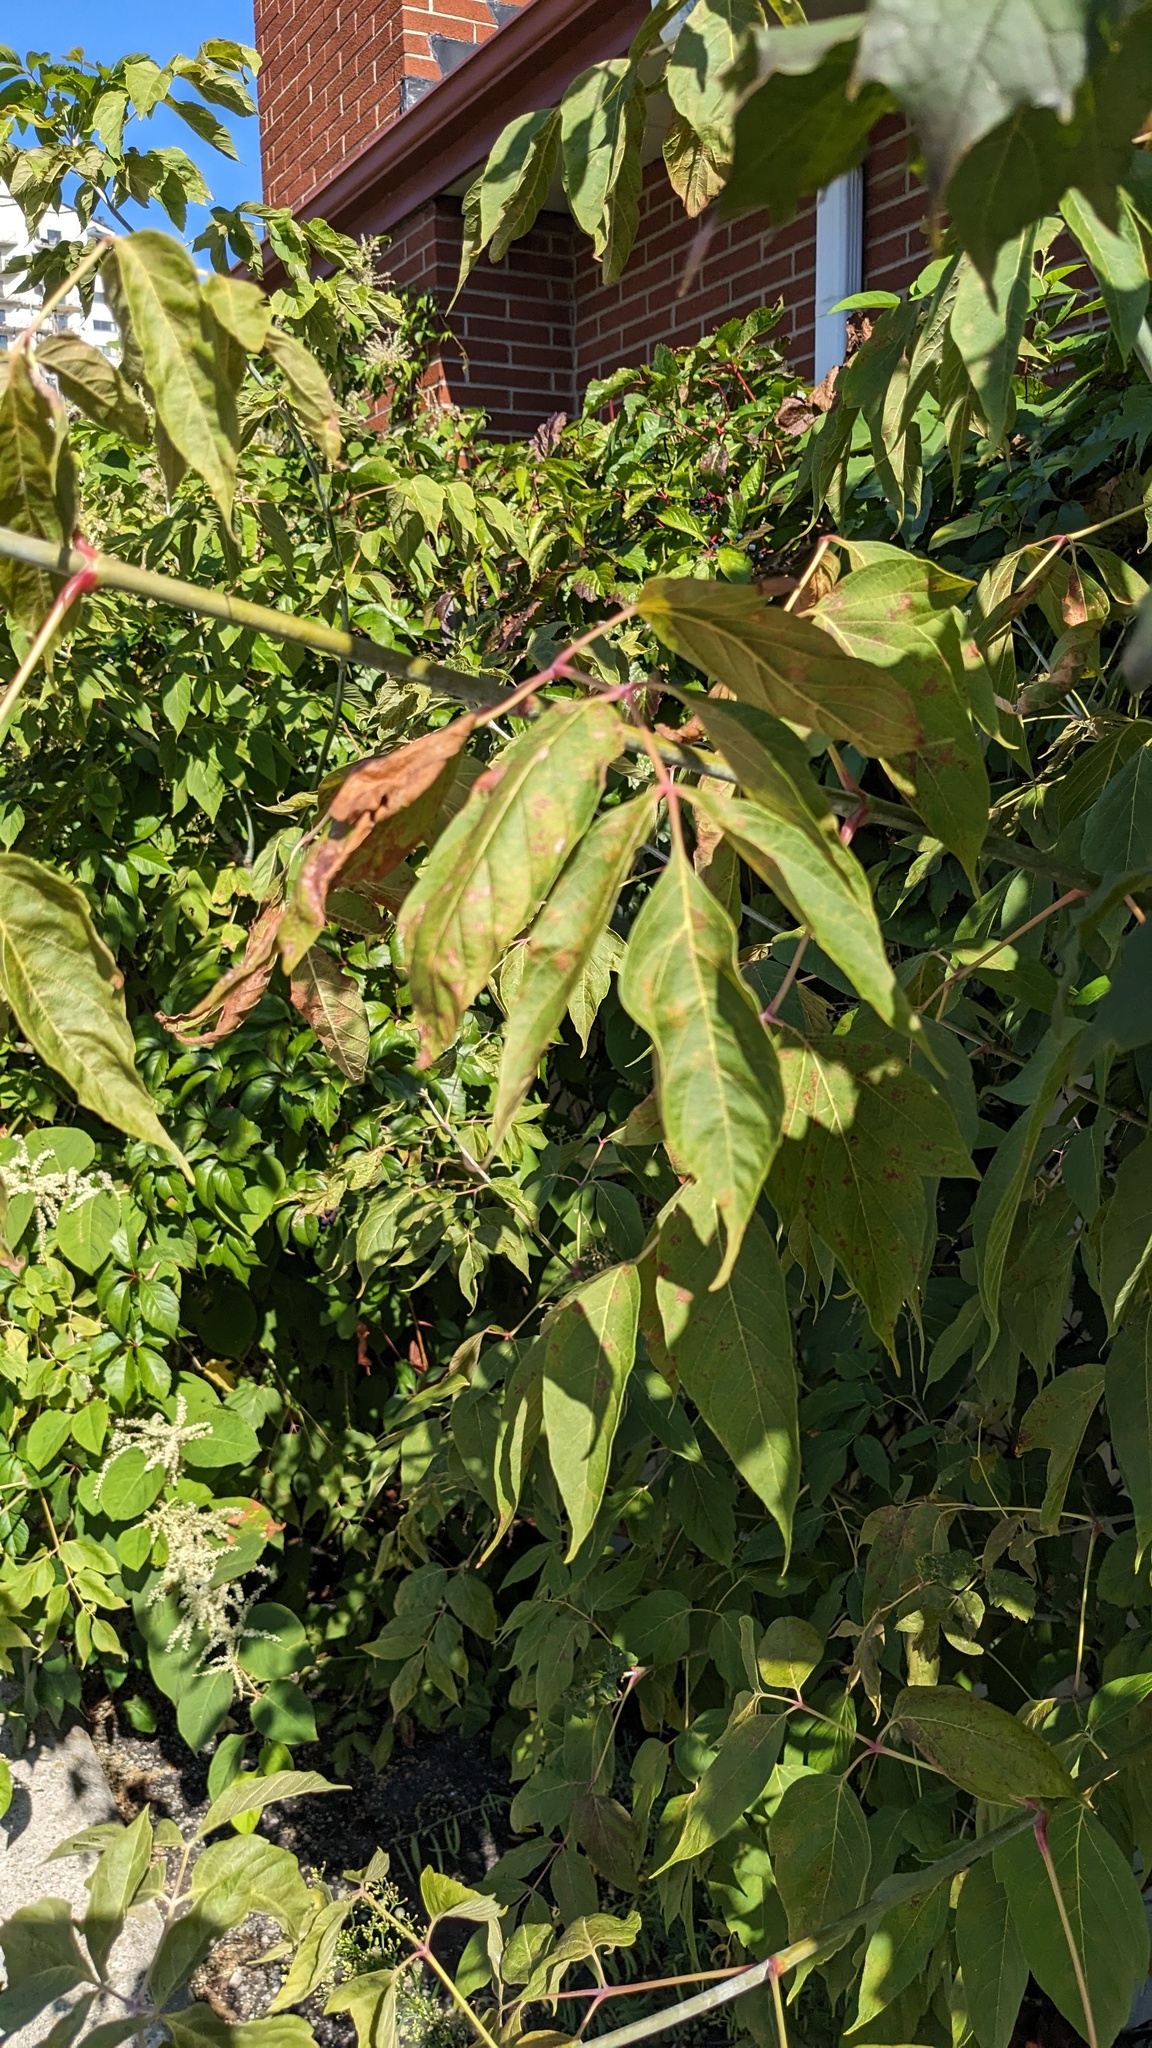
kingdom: Plantae
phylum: Tracheophyta
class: Magnoliopsida
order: Sapindales
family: Sapindaceae
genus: Acer
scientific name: Acer negundo
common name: Ashleaf maple
